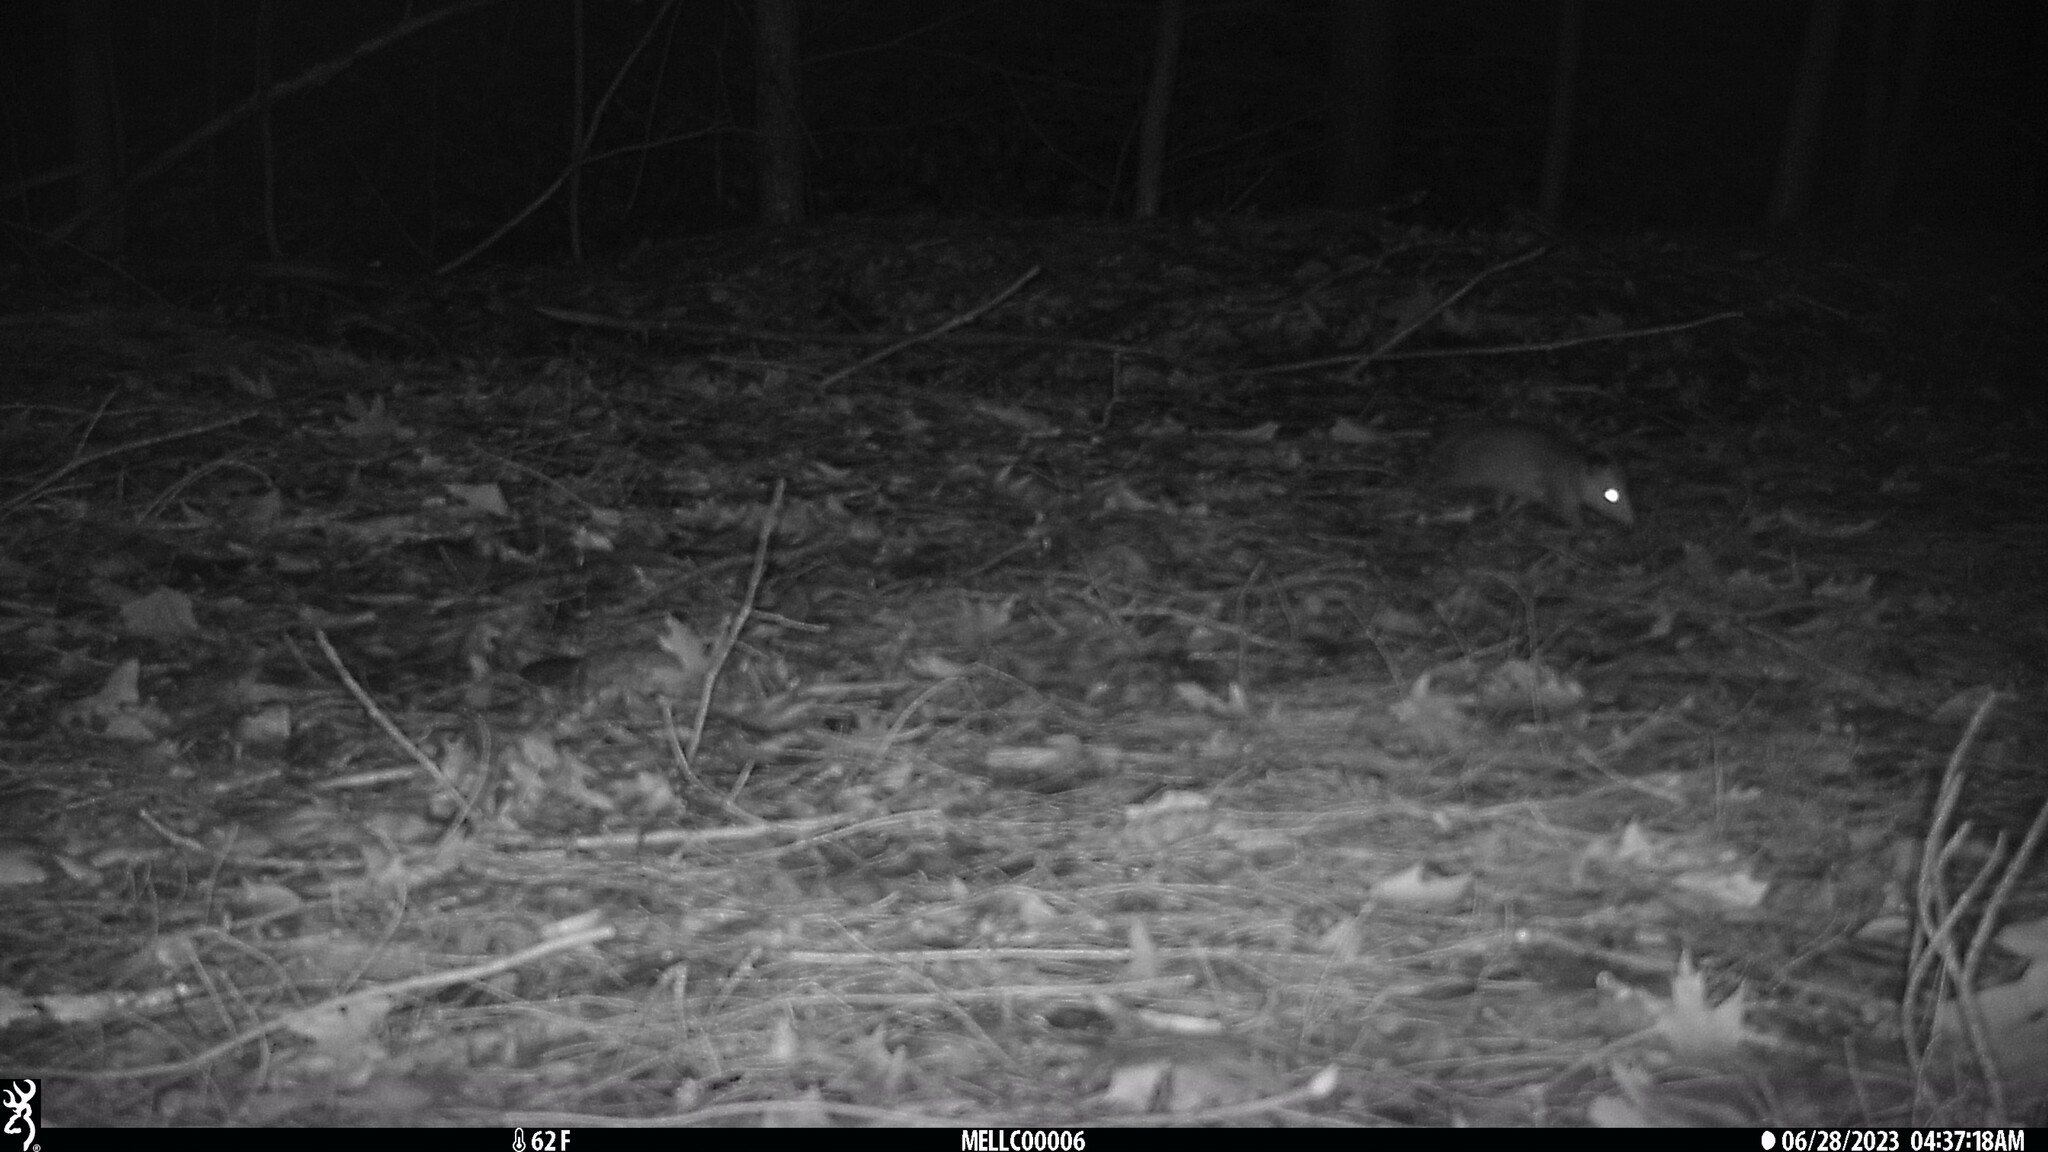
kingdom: Animalia
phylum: Chordata
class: Mammalia
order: Didelphimorphia
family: Didelphidae
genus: Didelphis
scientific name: Didelphis virginiana
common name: Virginia opossum
